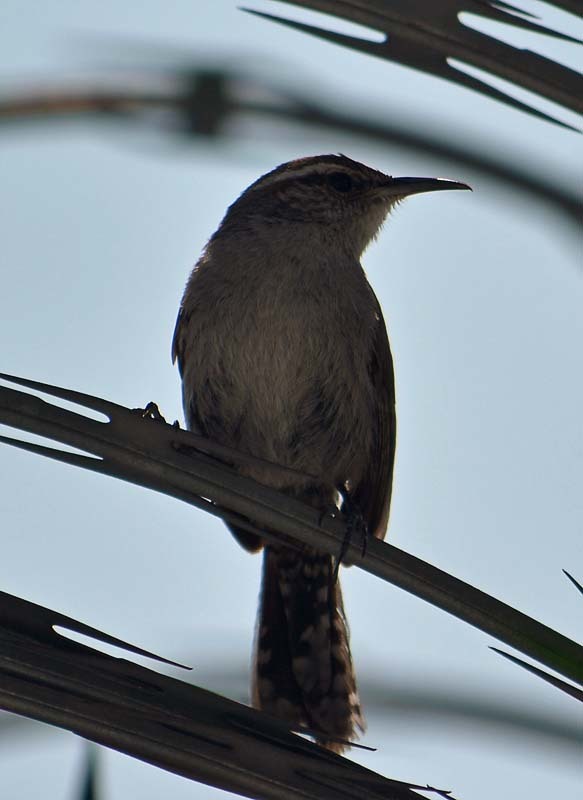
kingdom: Animalia
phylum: Chordata
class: Aves
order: Passeriformes
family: Troglodytidae
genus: Thryomanes
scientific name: Thryomanes bewickii
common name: Bewick's wren
